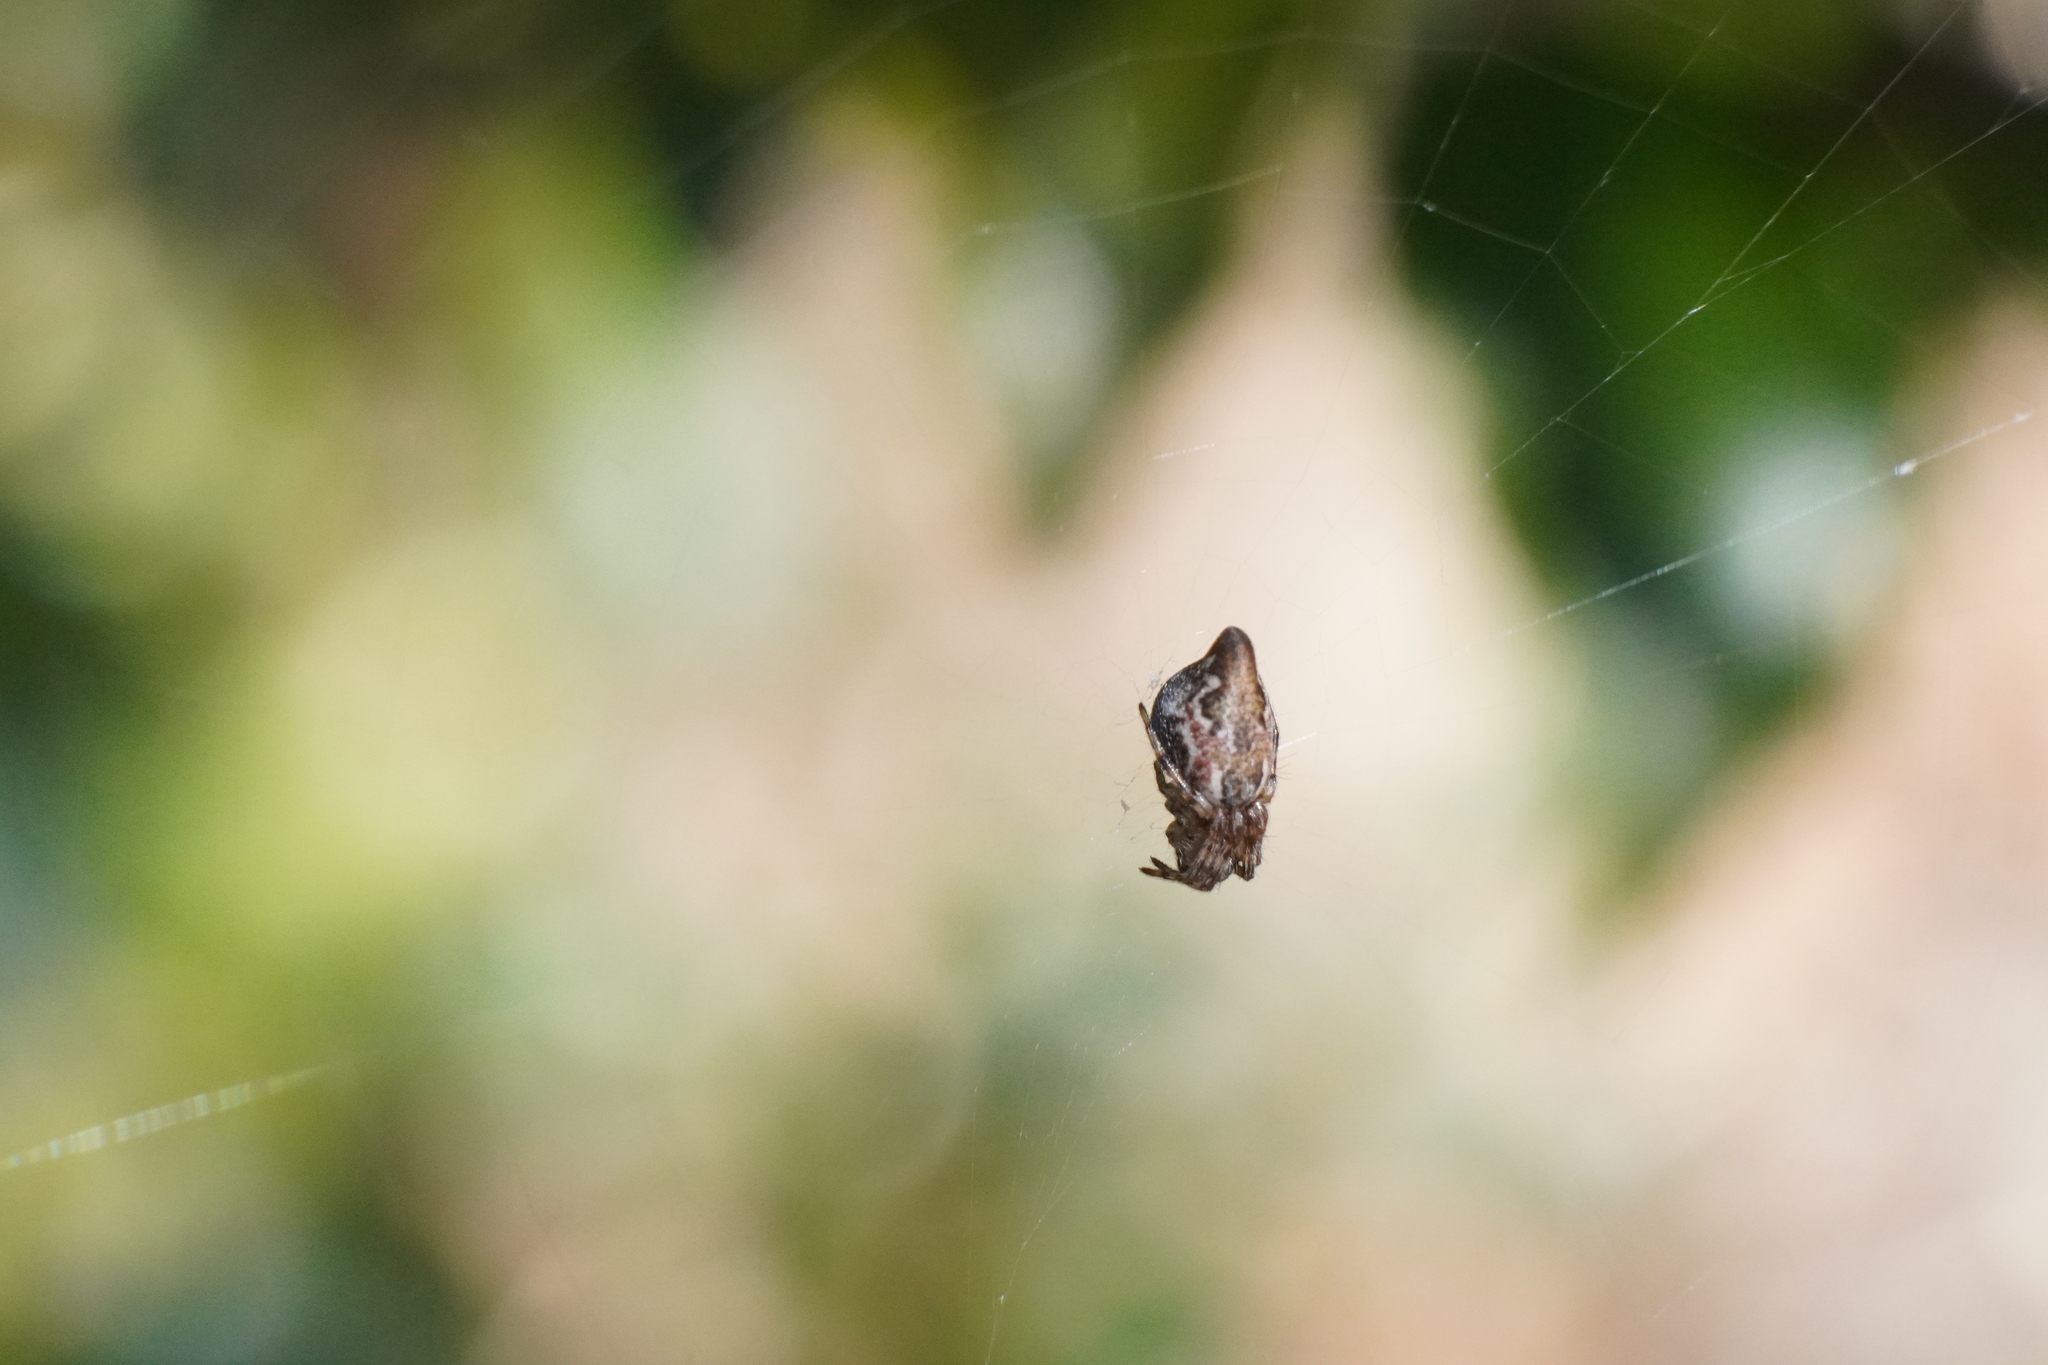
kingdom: Animalia
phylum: Arthropoda
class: Arachnida
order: Araneae
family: Araneidae
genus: Cyclosa
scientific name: Cyclosa conica
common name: Conical trashline orbweaver
